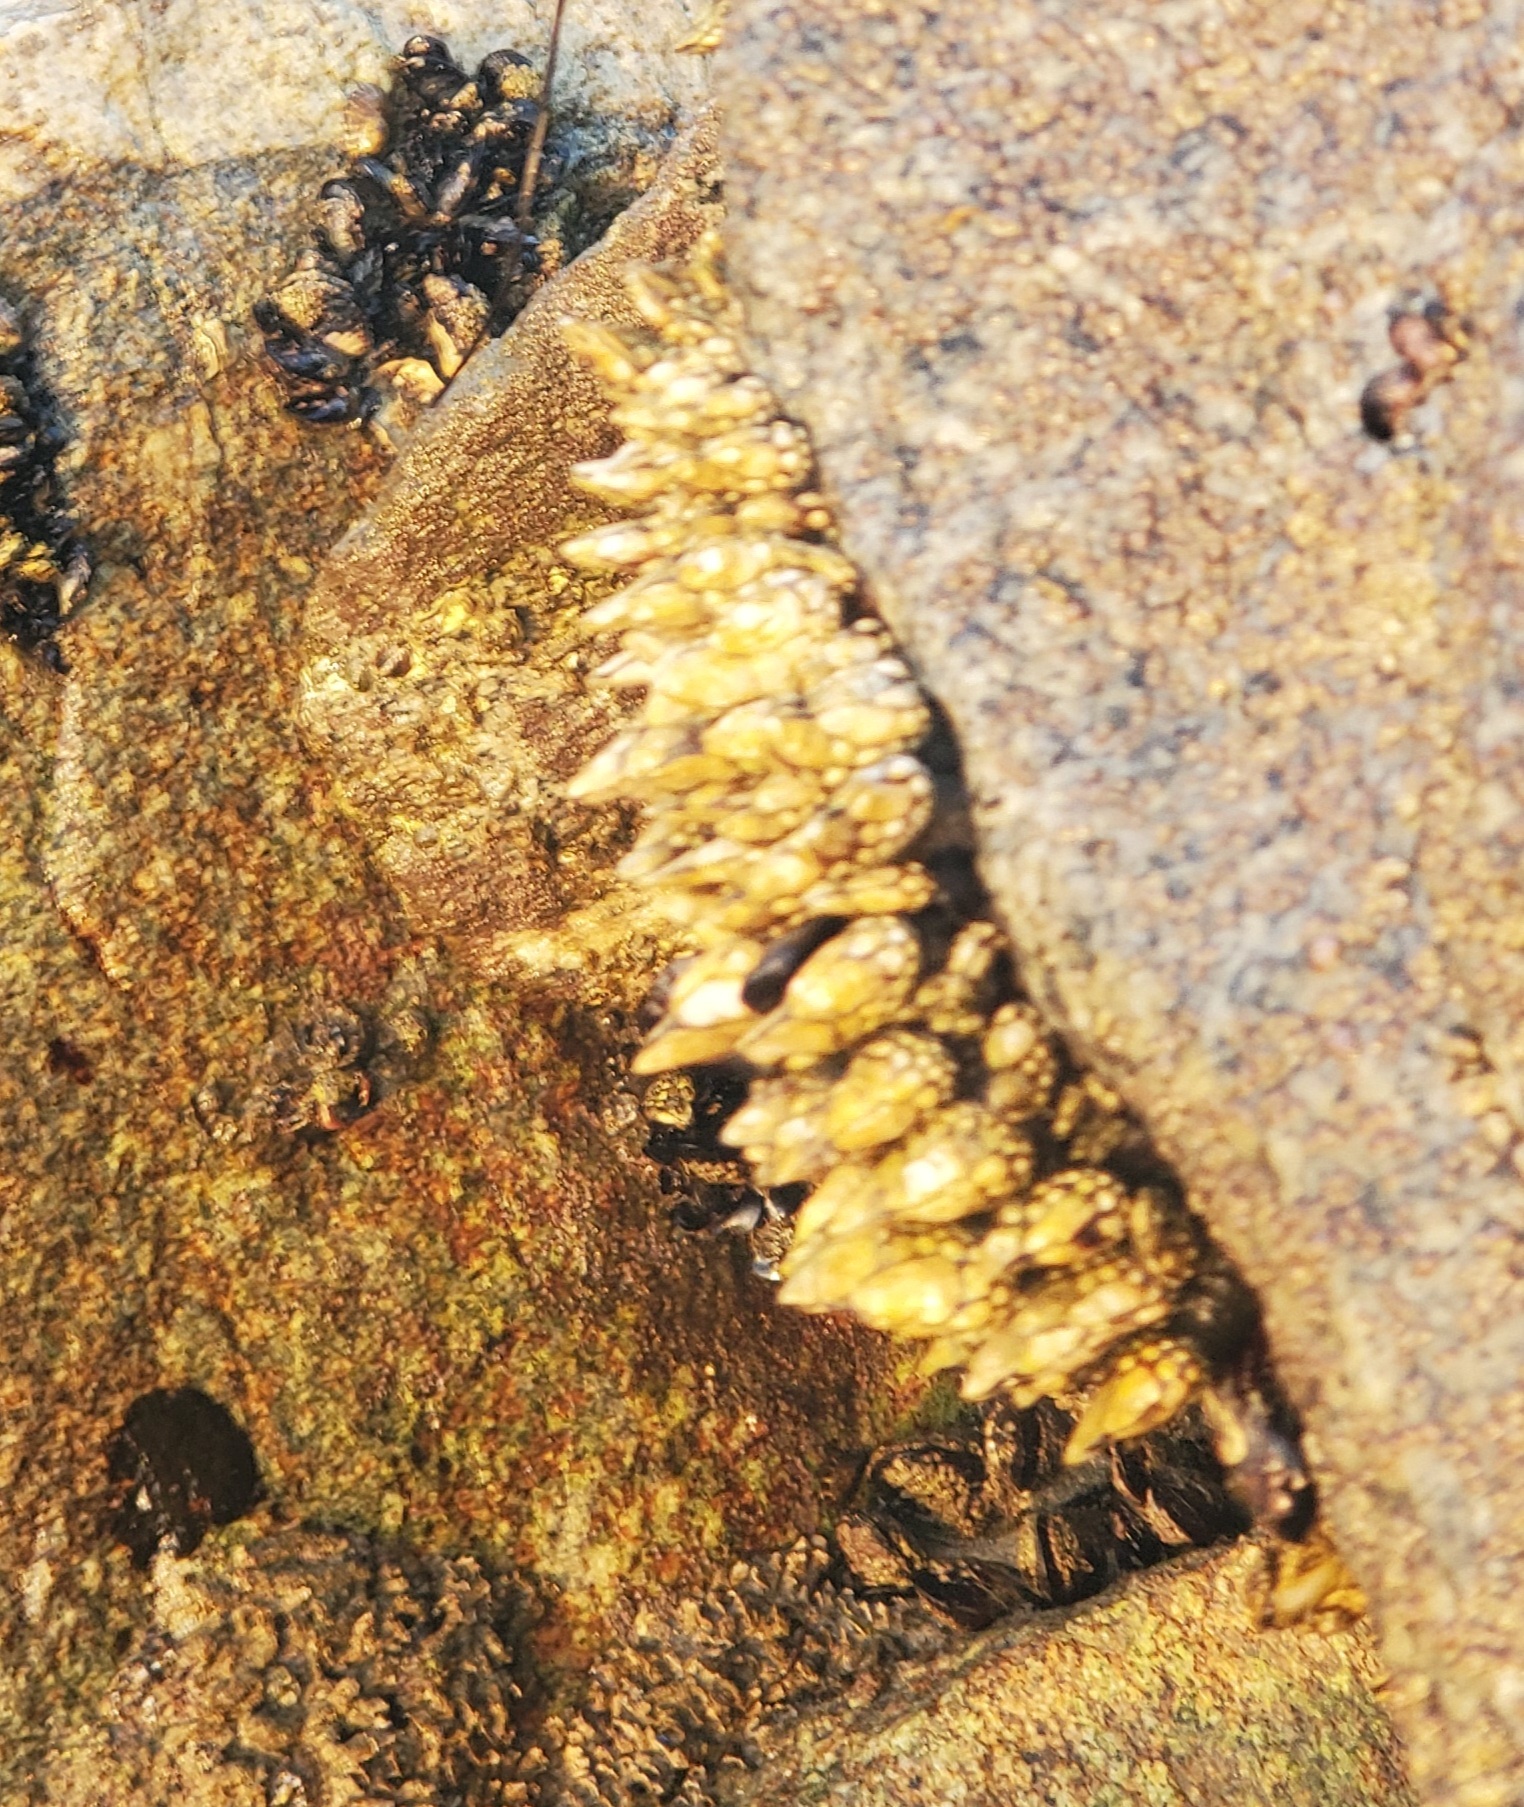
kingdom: Animalia
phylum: Arthropoda
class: Maxillopoda
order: Pedunculata
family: Pollicipedidae
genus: Pollicipes
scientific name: Pollicipes polymerus
